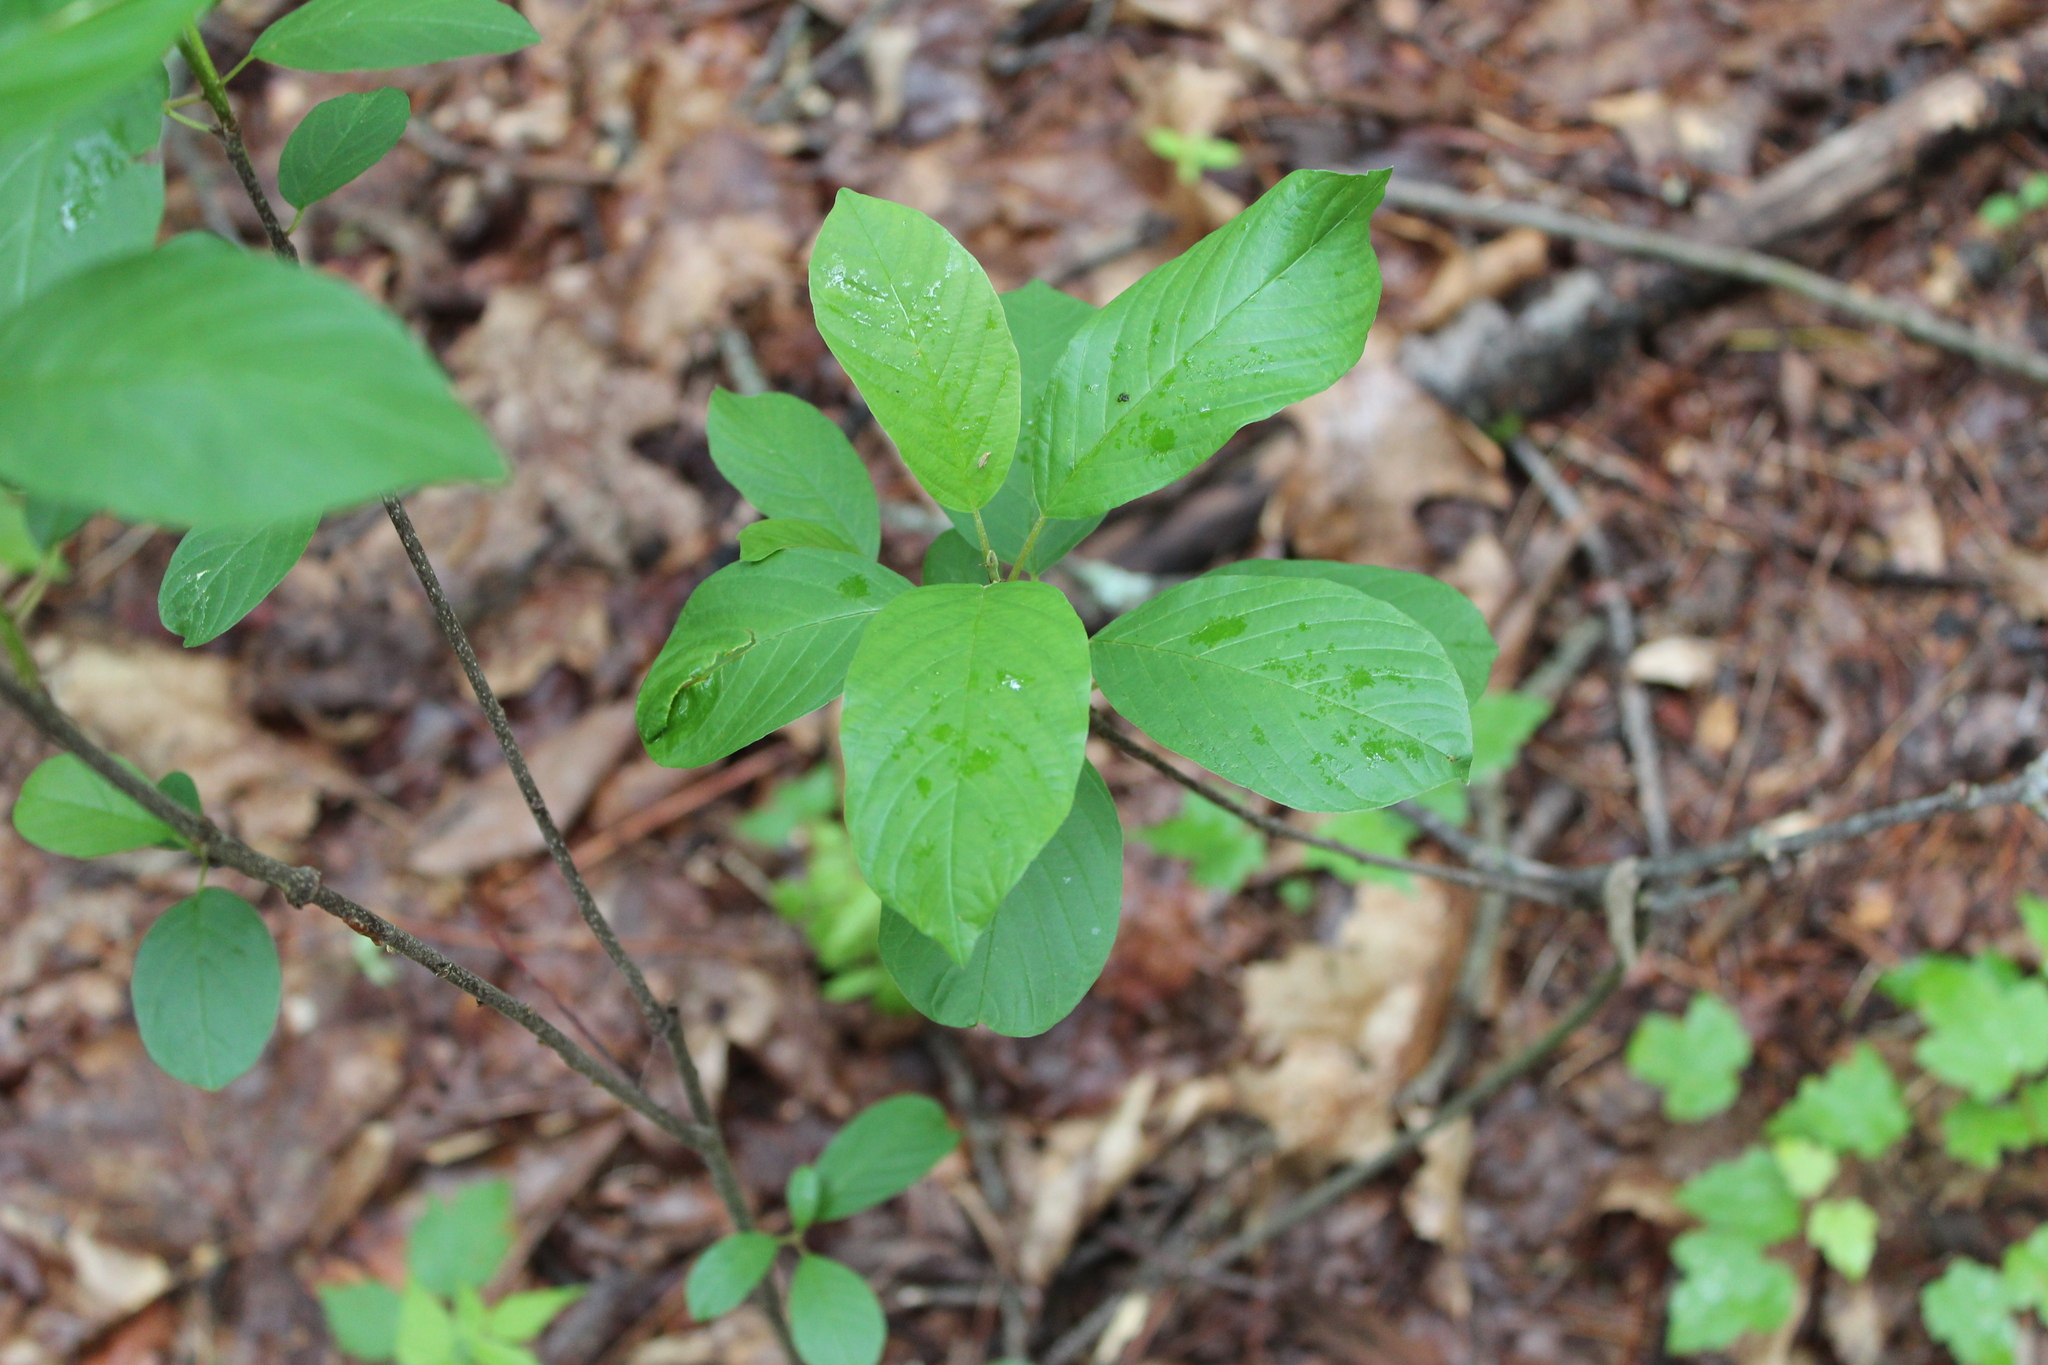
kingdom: Plantae
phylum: Tracheophyta
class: Magnoliopsida
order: Rosales
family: Rhamnaceae
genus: Frangula
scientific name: Frangula alnus
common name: Alder buckthorn
